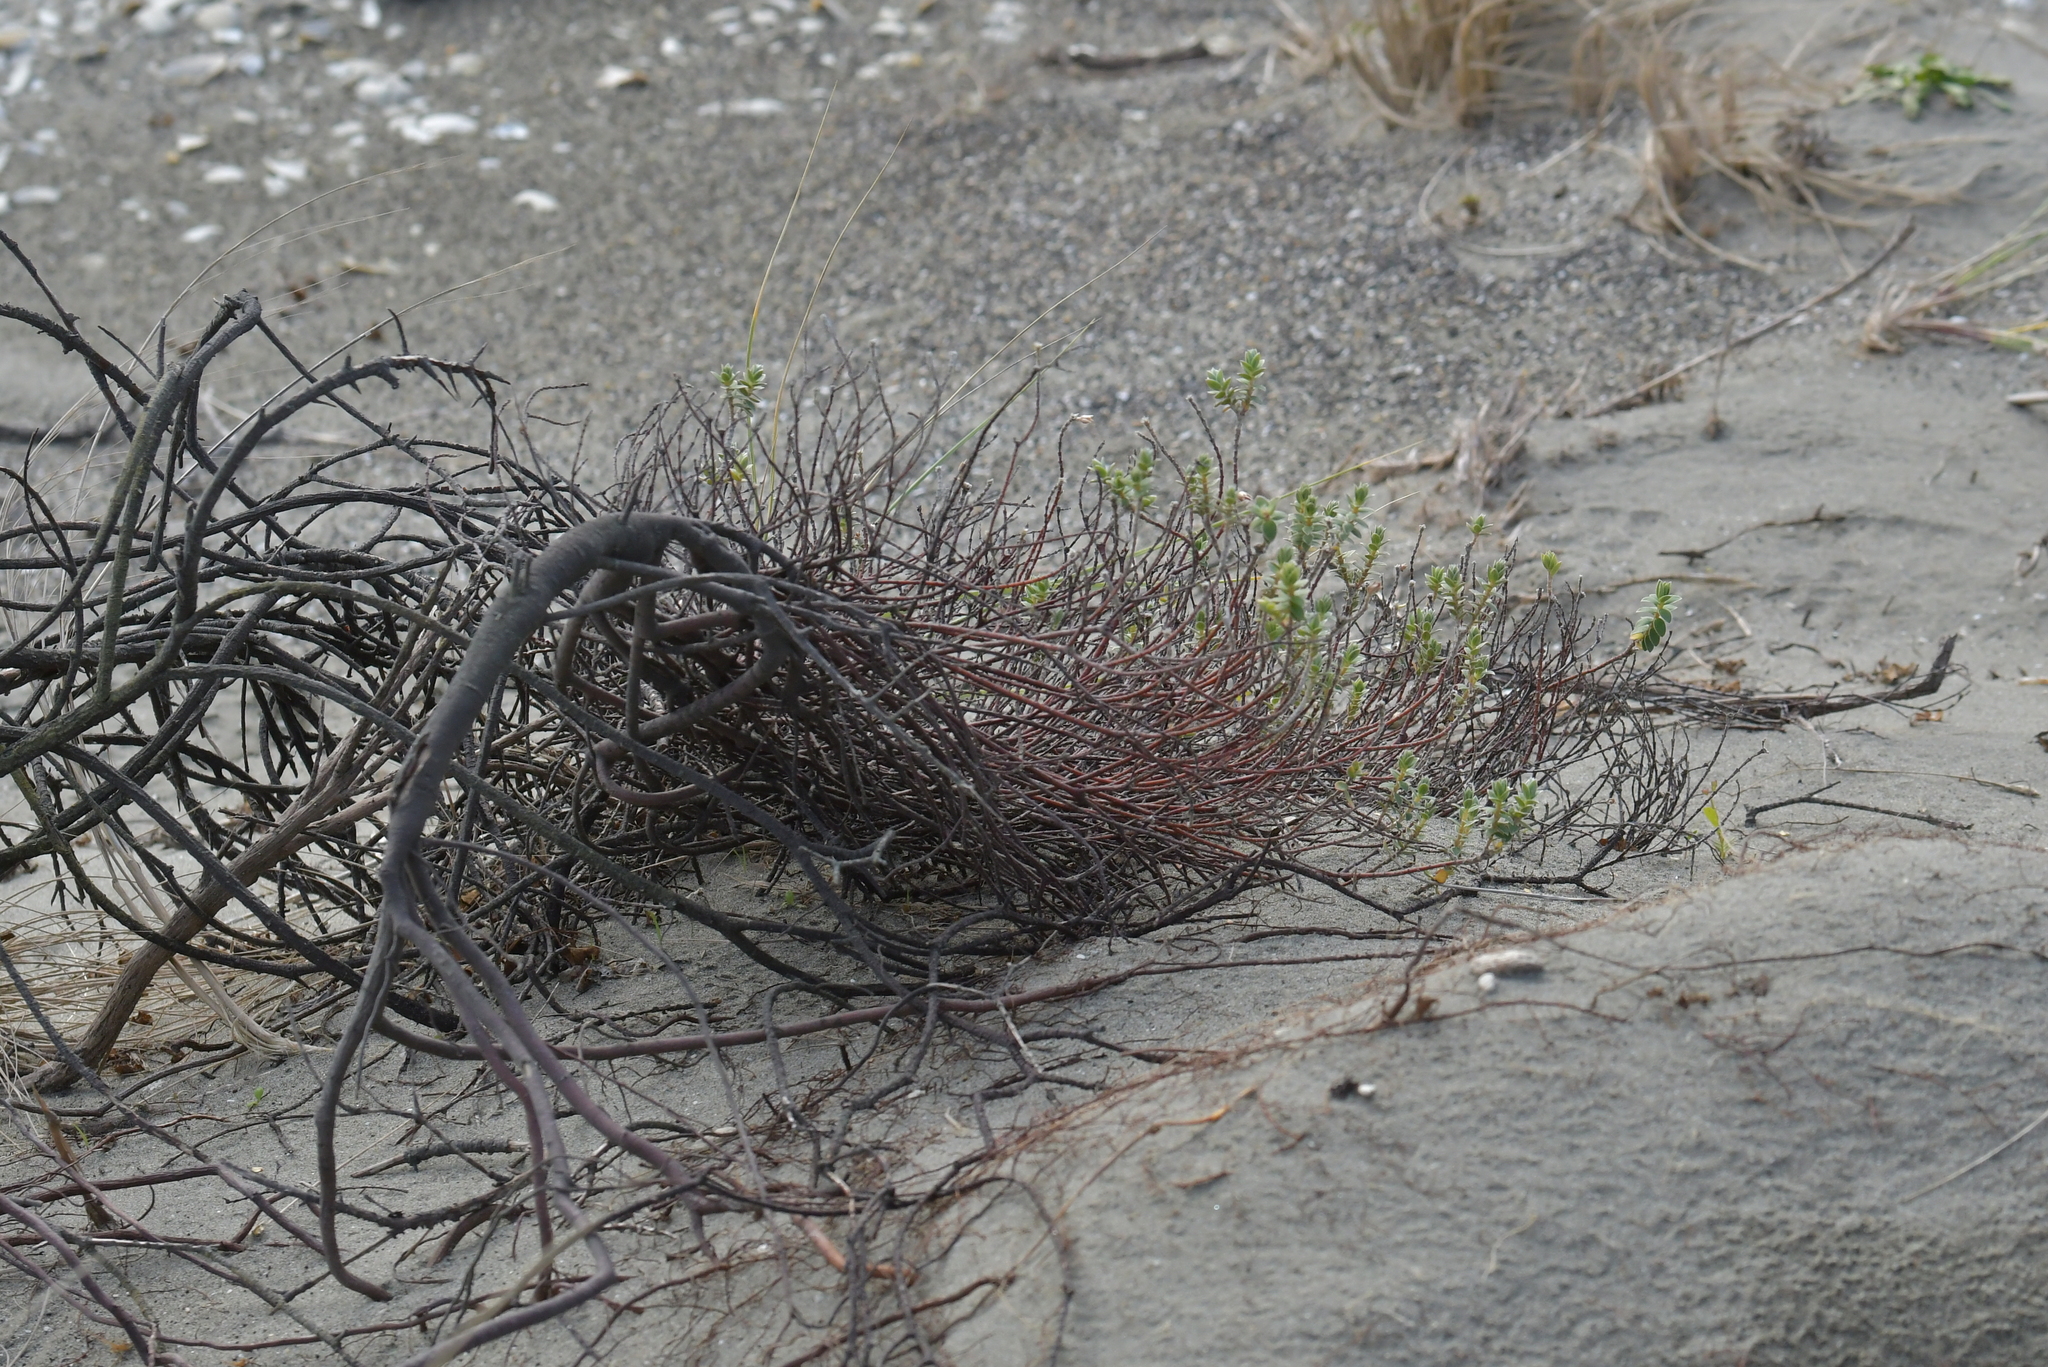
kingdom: Plantae
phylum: Tracheophyta
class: Magnoliopsida
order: Malvales
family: Thymelaeaceae
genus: Pimelea
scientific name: Pimelea villosa
